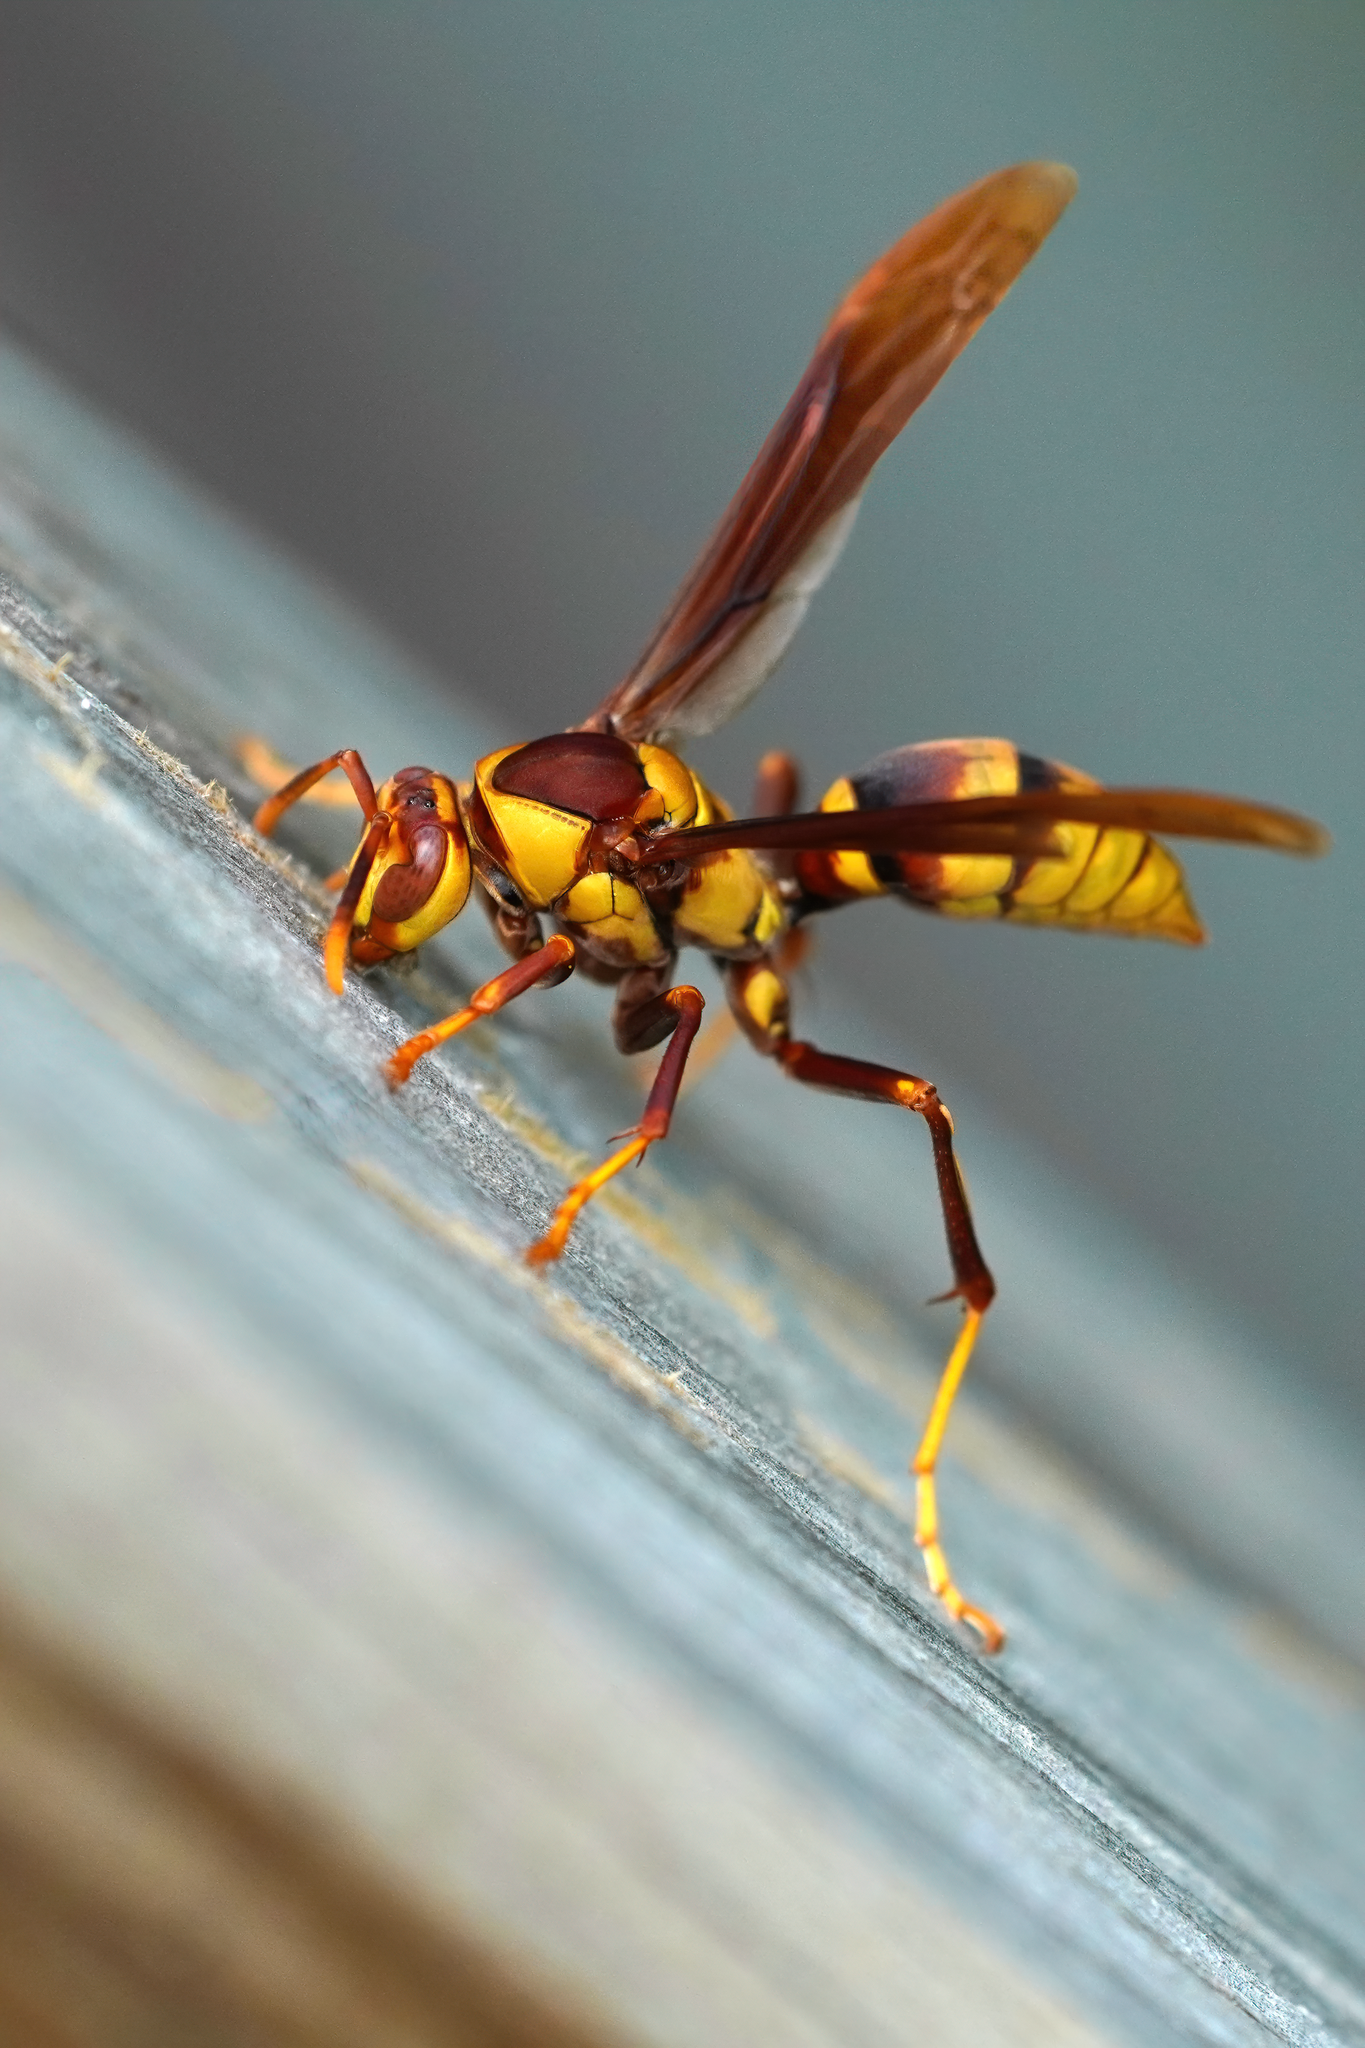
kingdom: Animalia
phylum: Arthropoda
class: Insecta
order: Hymenoptera
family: Eumenidae
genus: Polistes
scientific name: Polistes major
